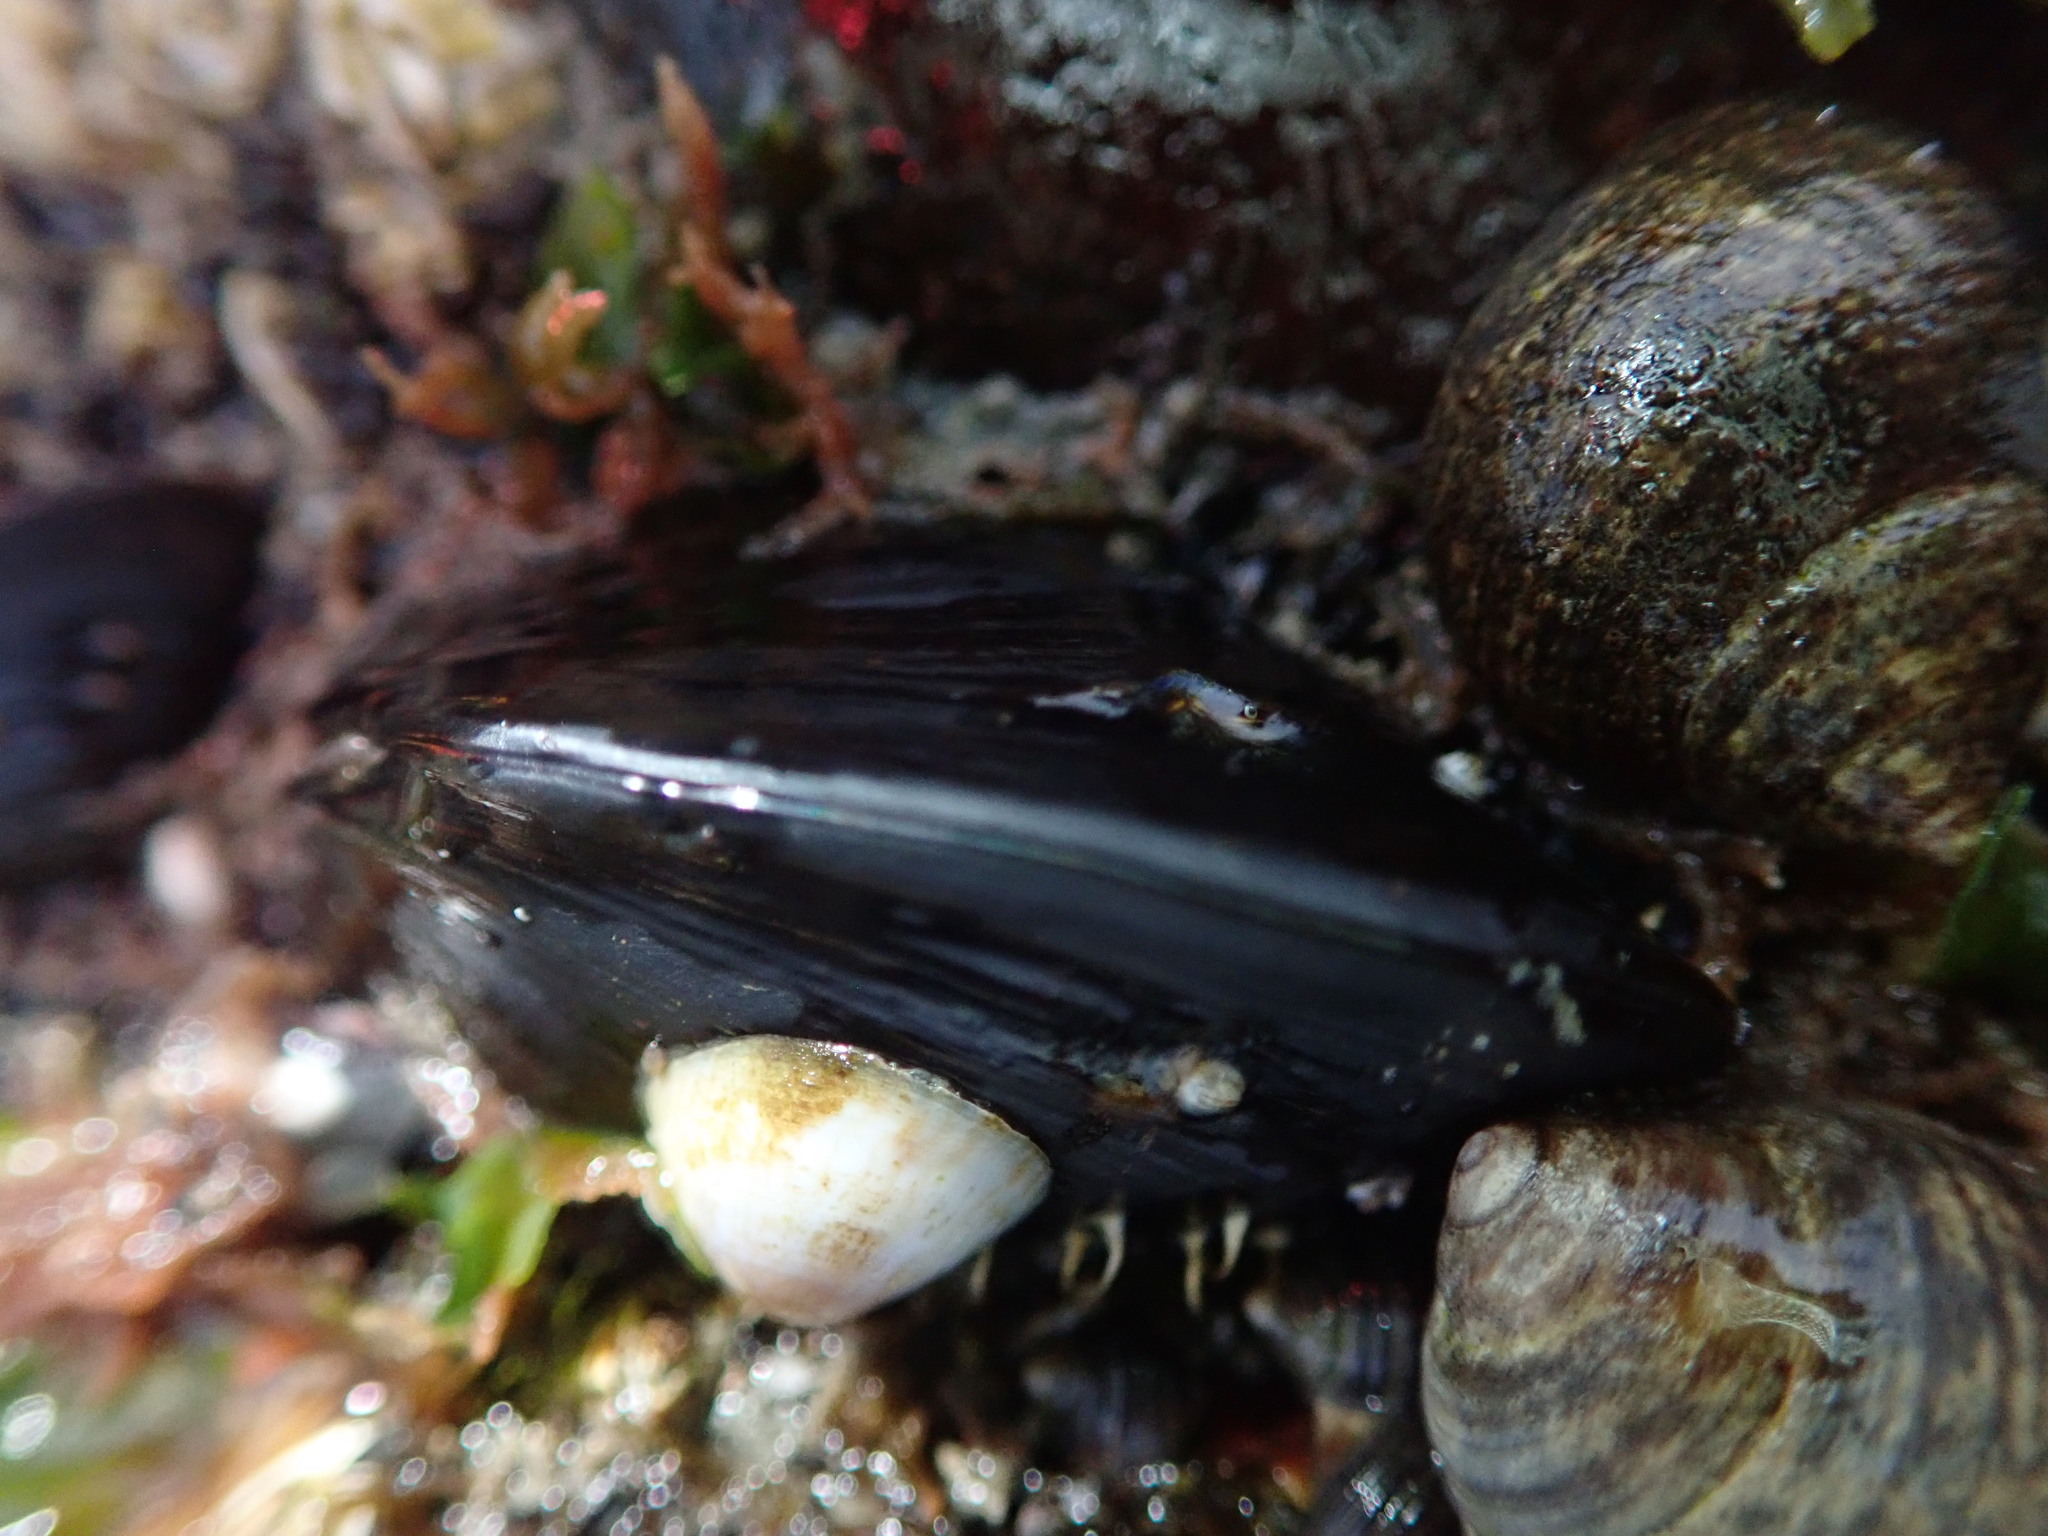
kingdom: Animalia
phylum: Mollusca
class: Bivalvia
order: Mytilida
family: Mytilidae
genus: Mytilus
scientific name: Mytilus edulis
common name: Blue mussel
